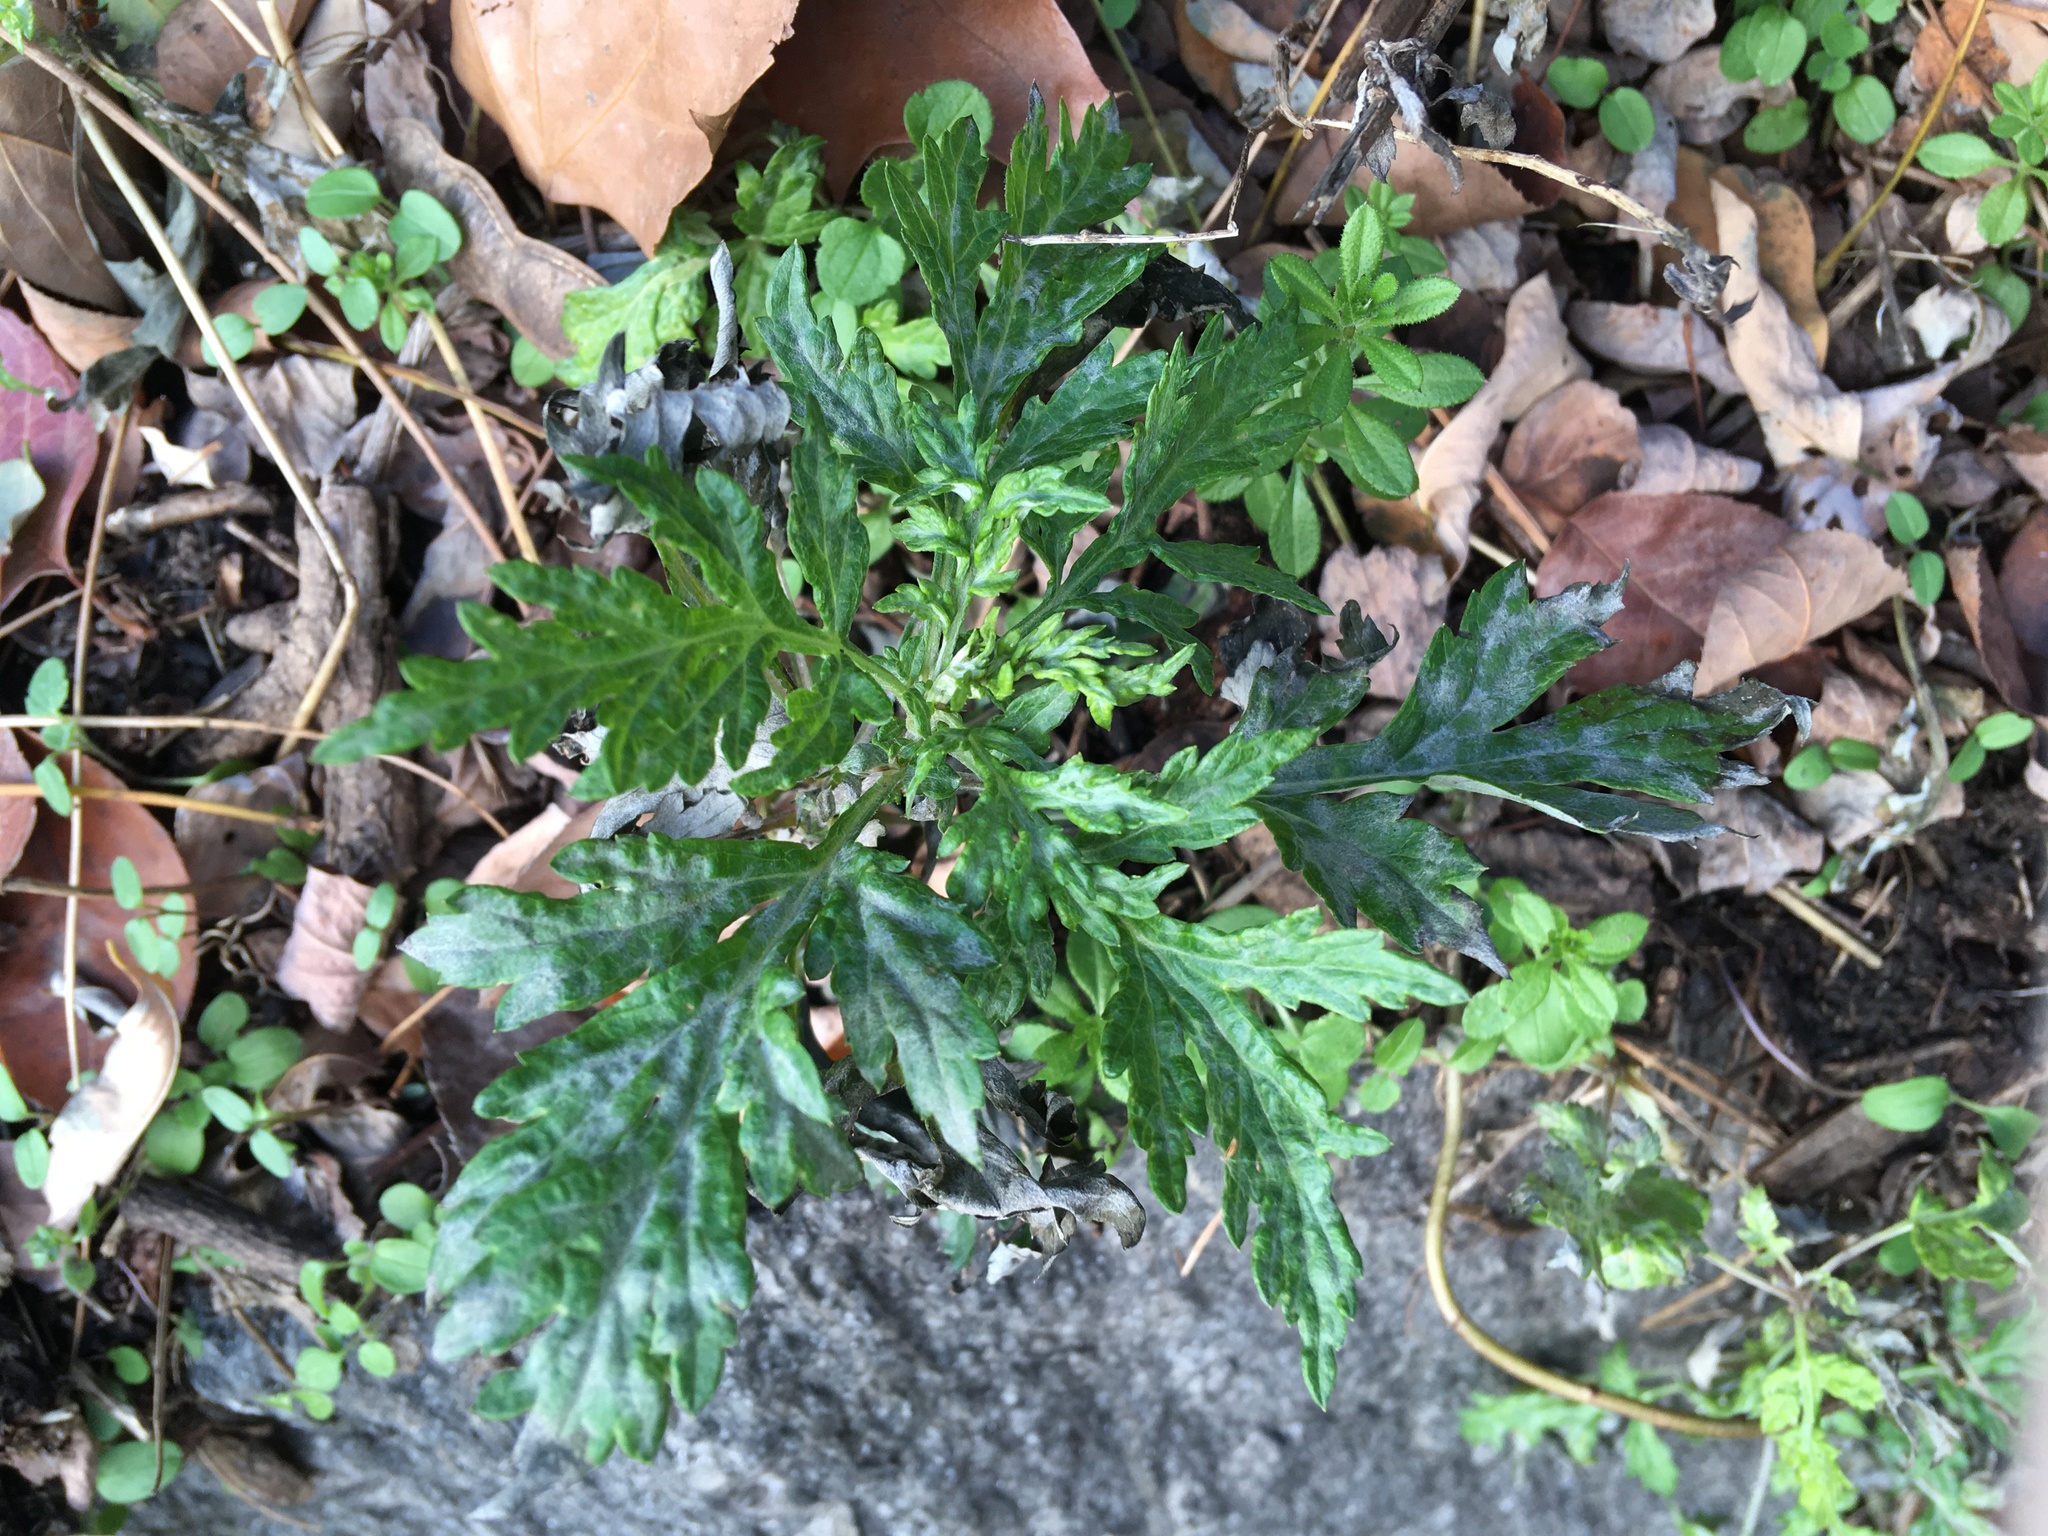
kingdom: Plantae
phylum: Tracheophyta
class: Magnoliopsida
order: Asterales
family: Asteraceae
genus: Artemisia
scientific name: Artemisia vulgaris
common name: Mugwort
